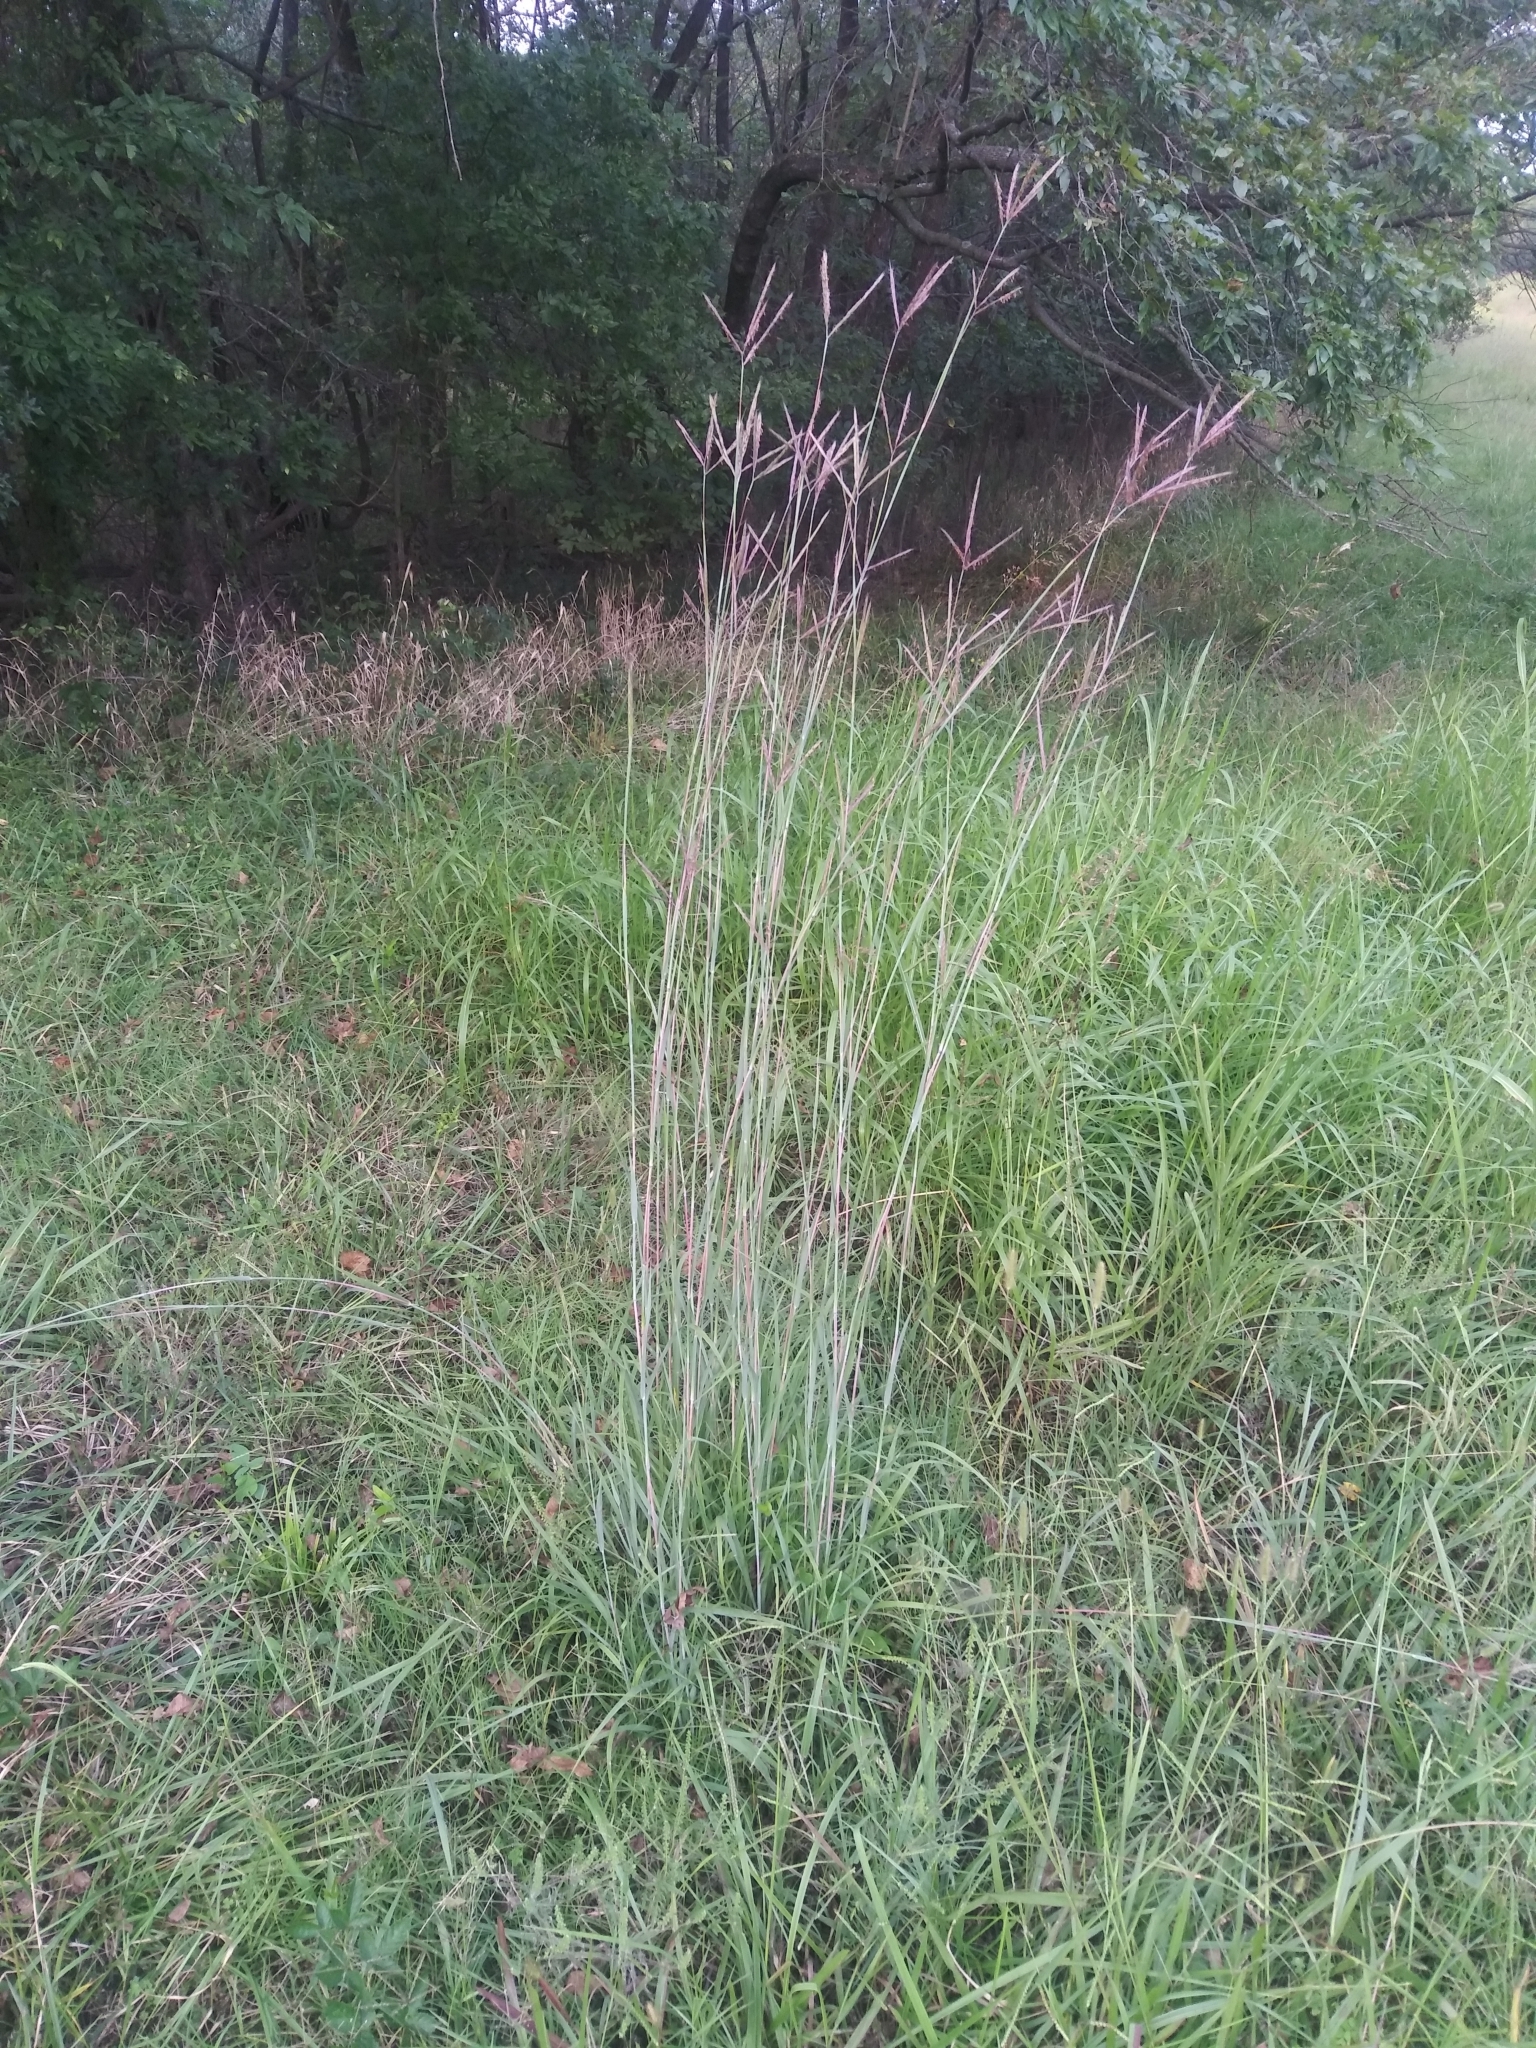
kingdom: Plantae
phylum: Tracheophyta
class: Liliopsida
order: Poales
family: Poaceae
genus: Andropogon
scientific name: Andropogon gerardi
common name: Big bluestem
